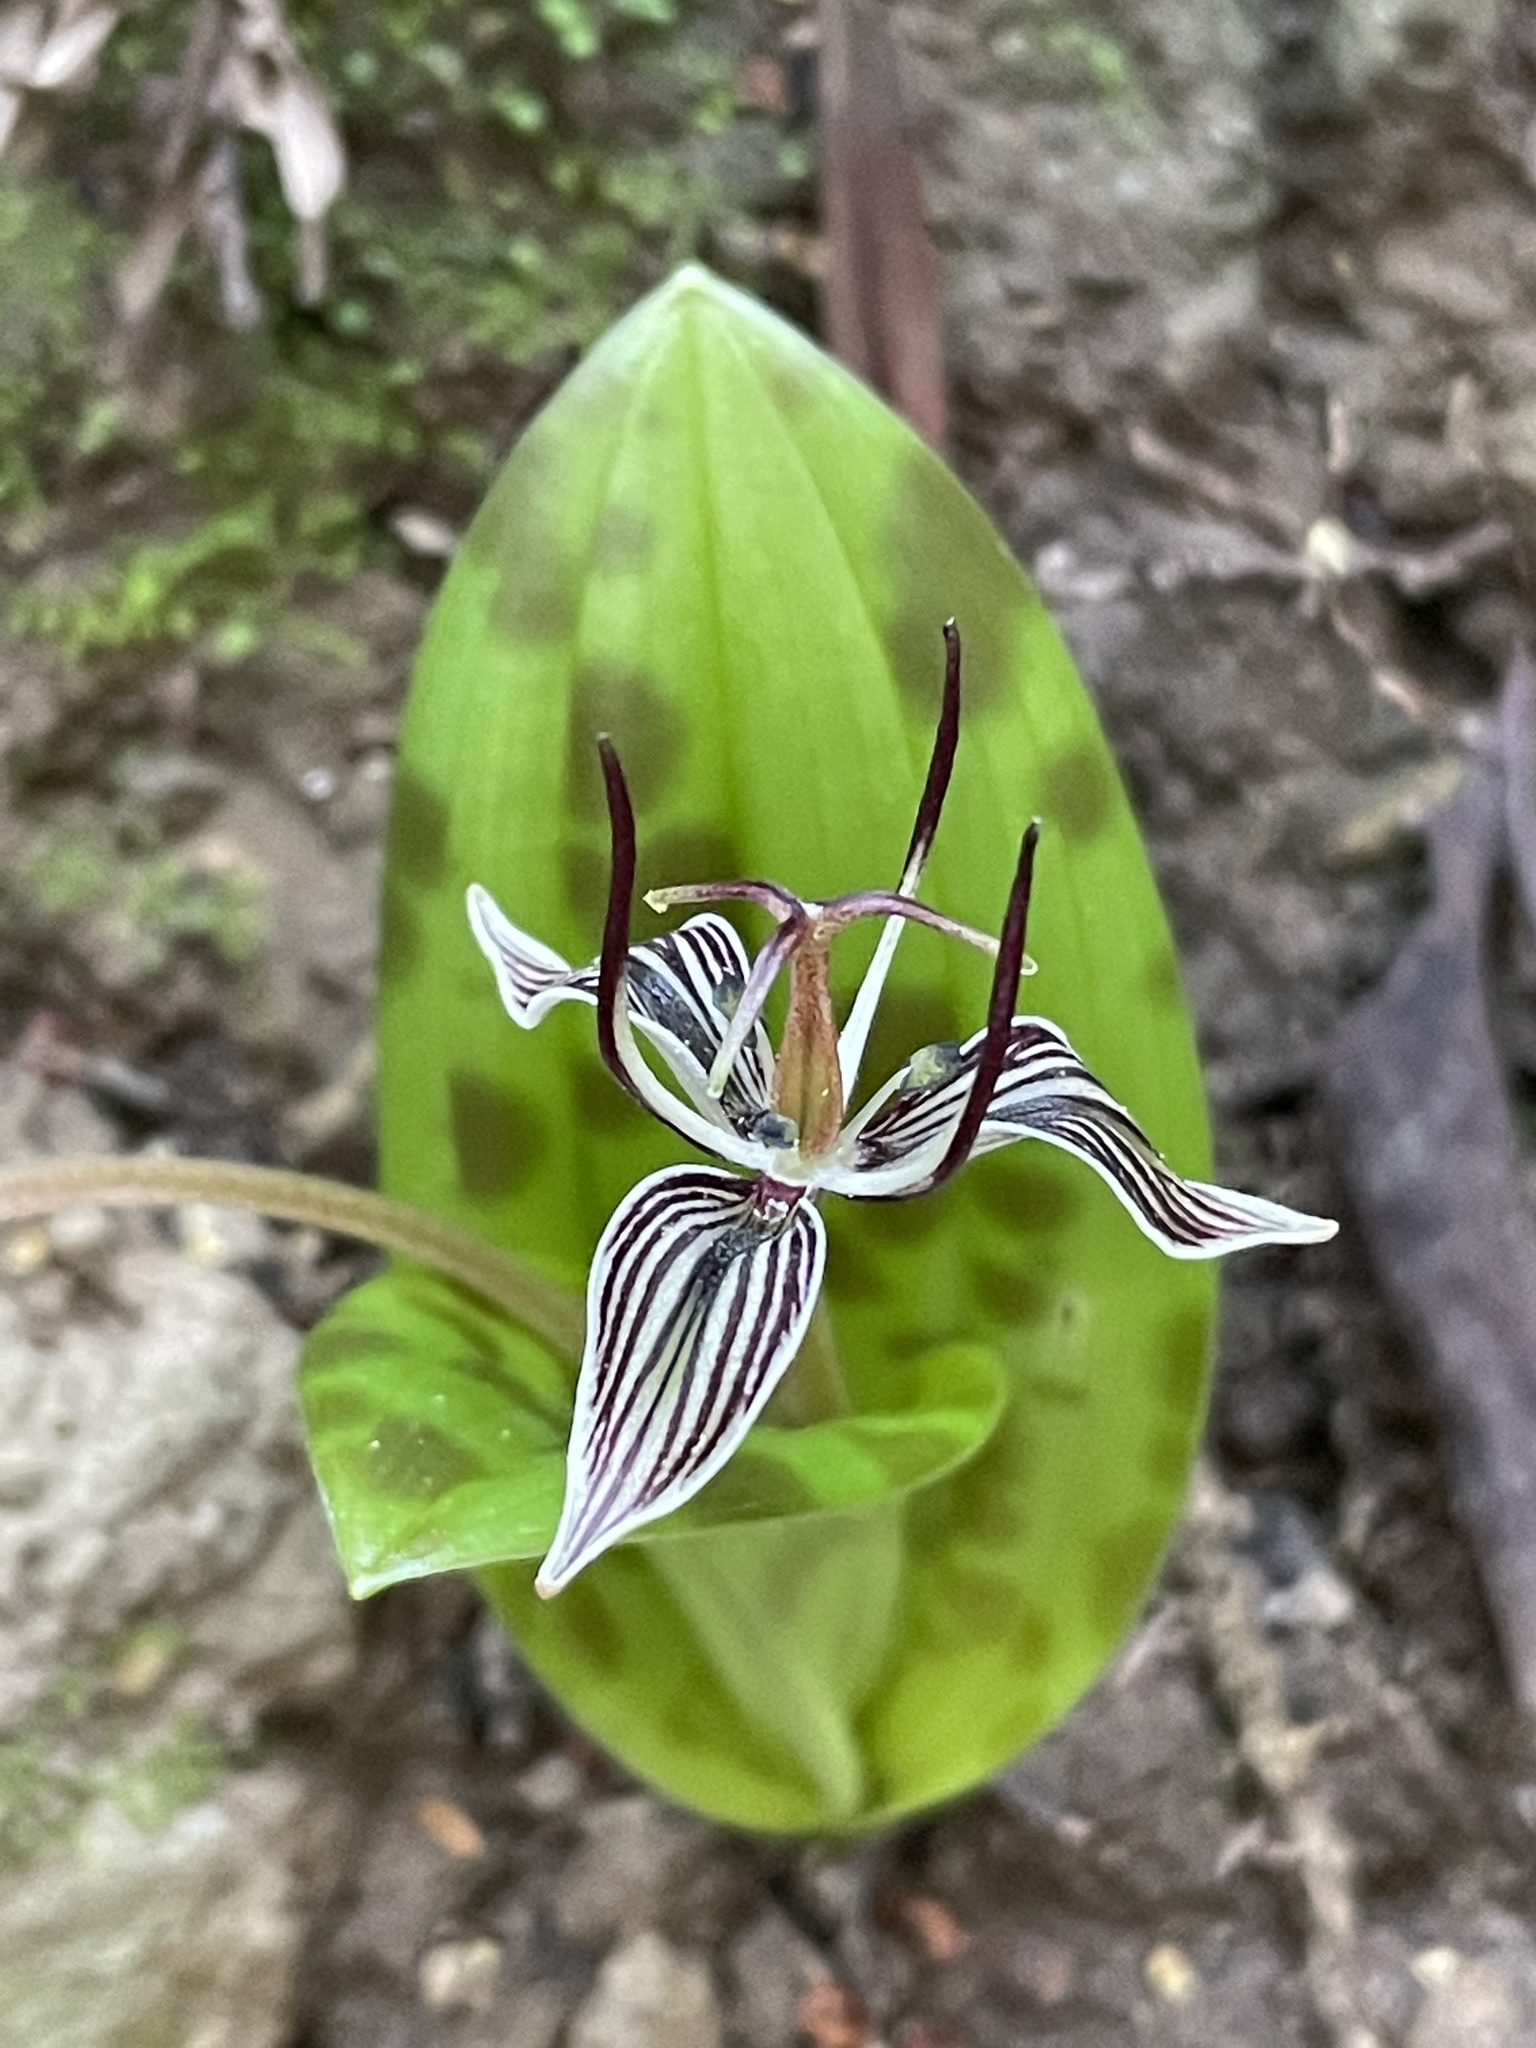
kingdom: Plantae
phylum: Tracheophyta
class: Liliopsida
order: Liliales
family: Liliaceae
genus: Scoliopus
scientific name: Scoliopus bigelovii
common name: Foetid adder's-tongue
